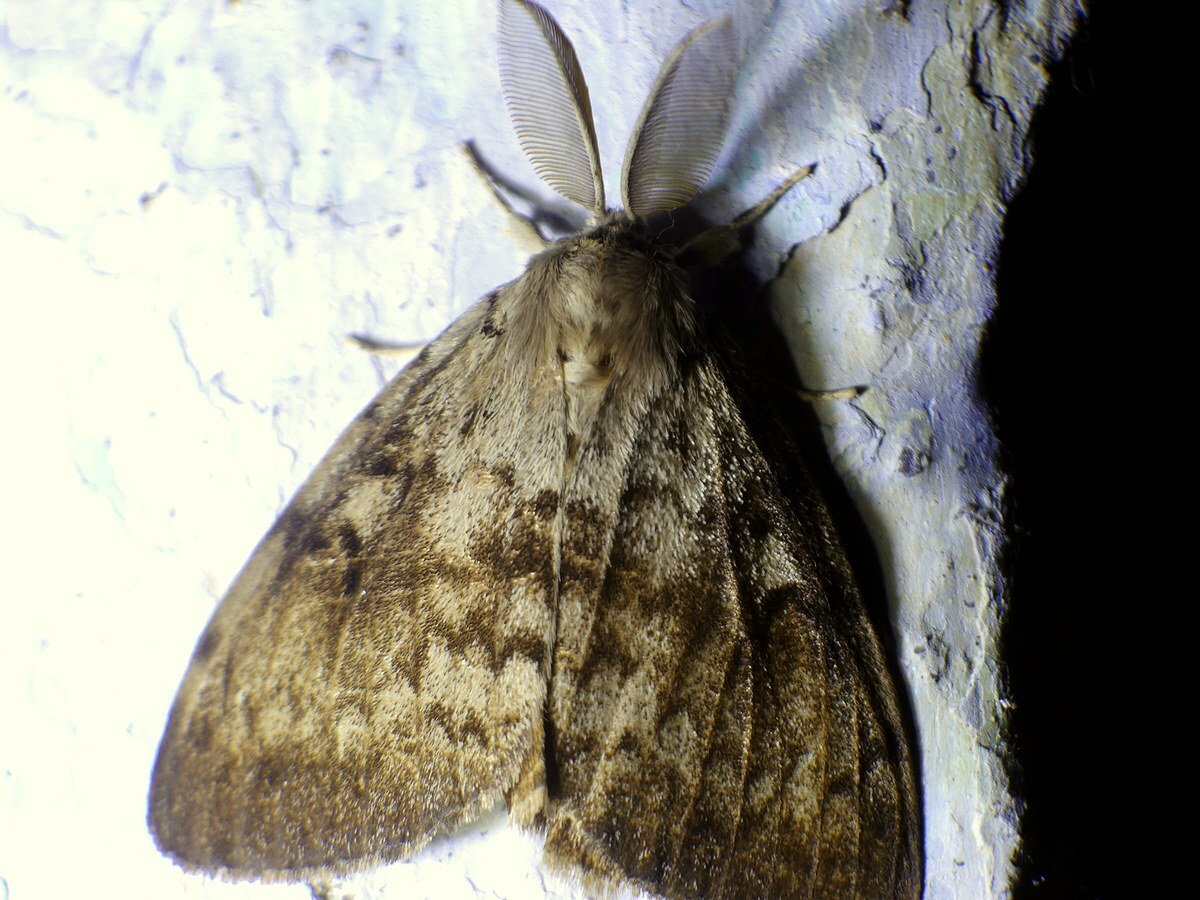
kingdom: Animalia
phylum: Arthropoda
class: Insecta
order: Lepidoptera
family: Erebidae
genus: Lymantria
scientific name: Lymantria dispar
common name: Gypsy moth
